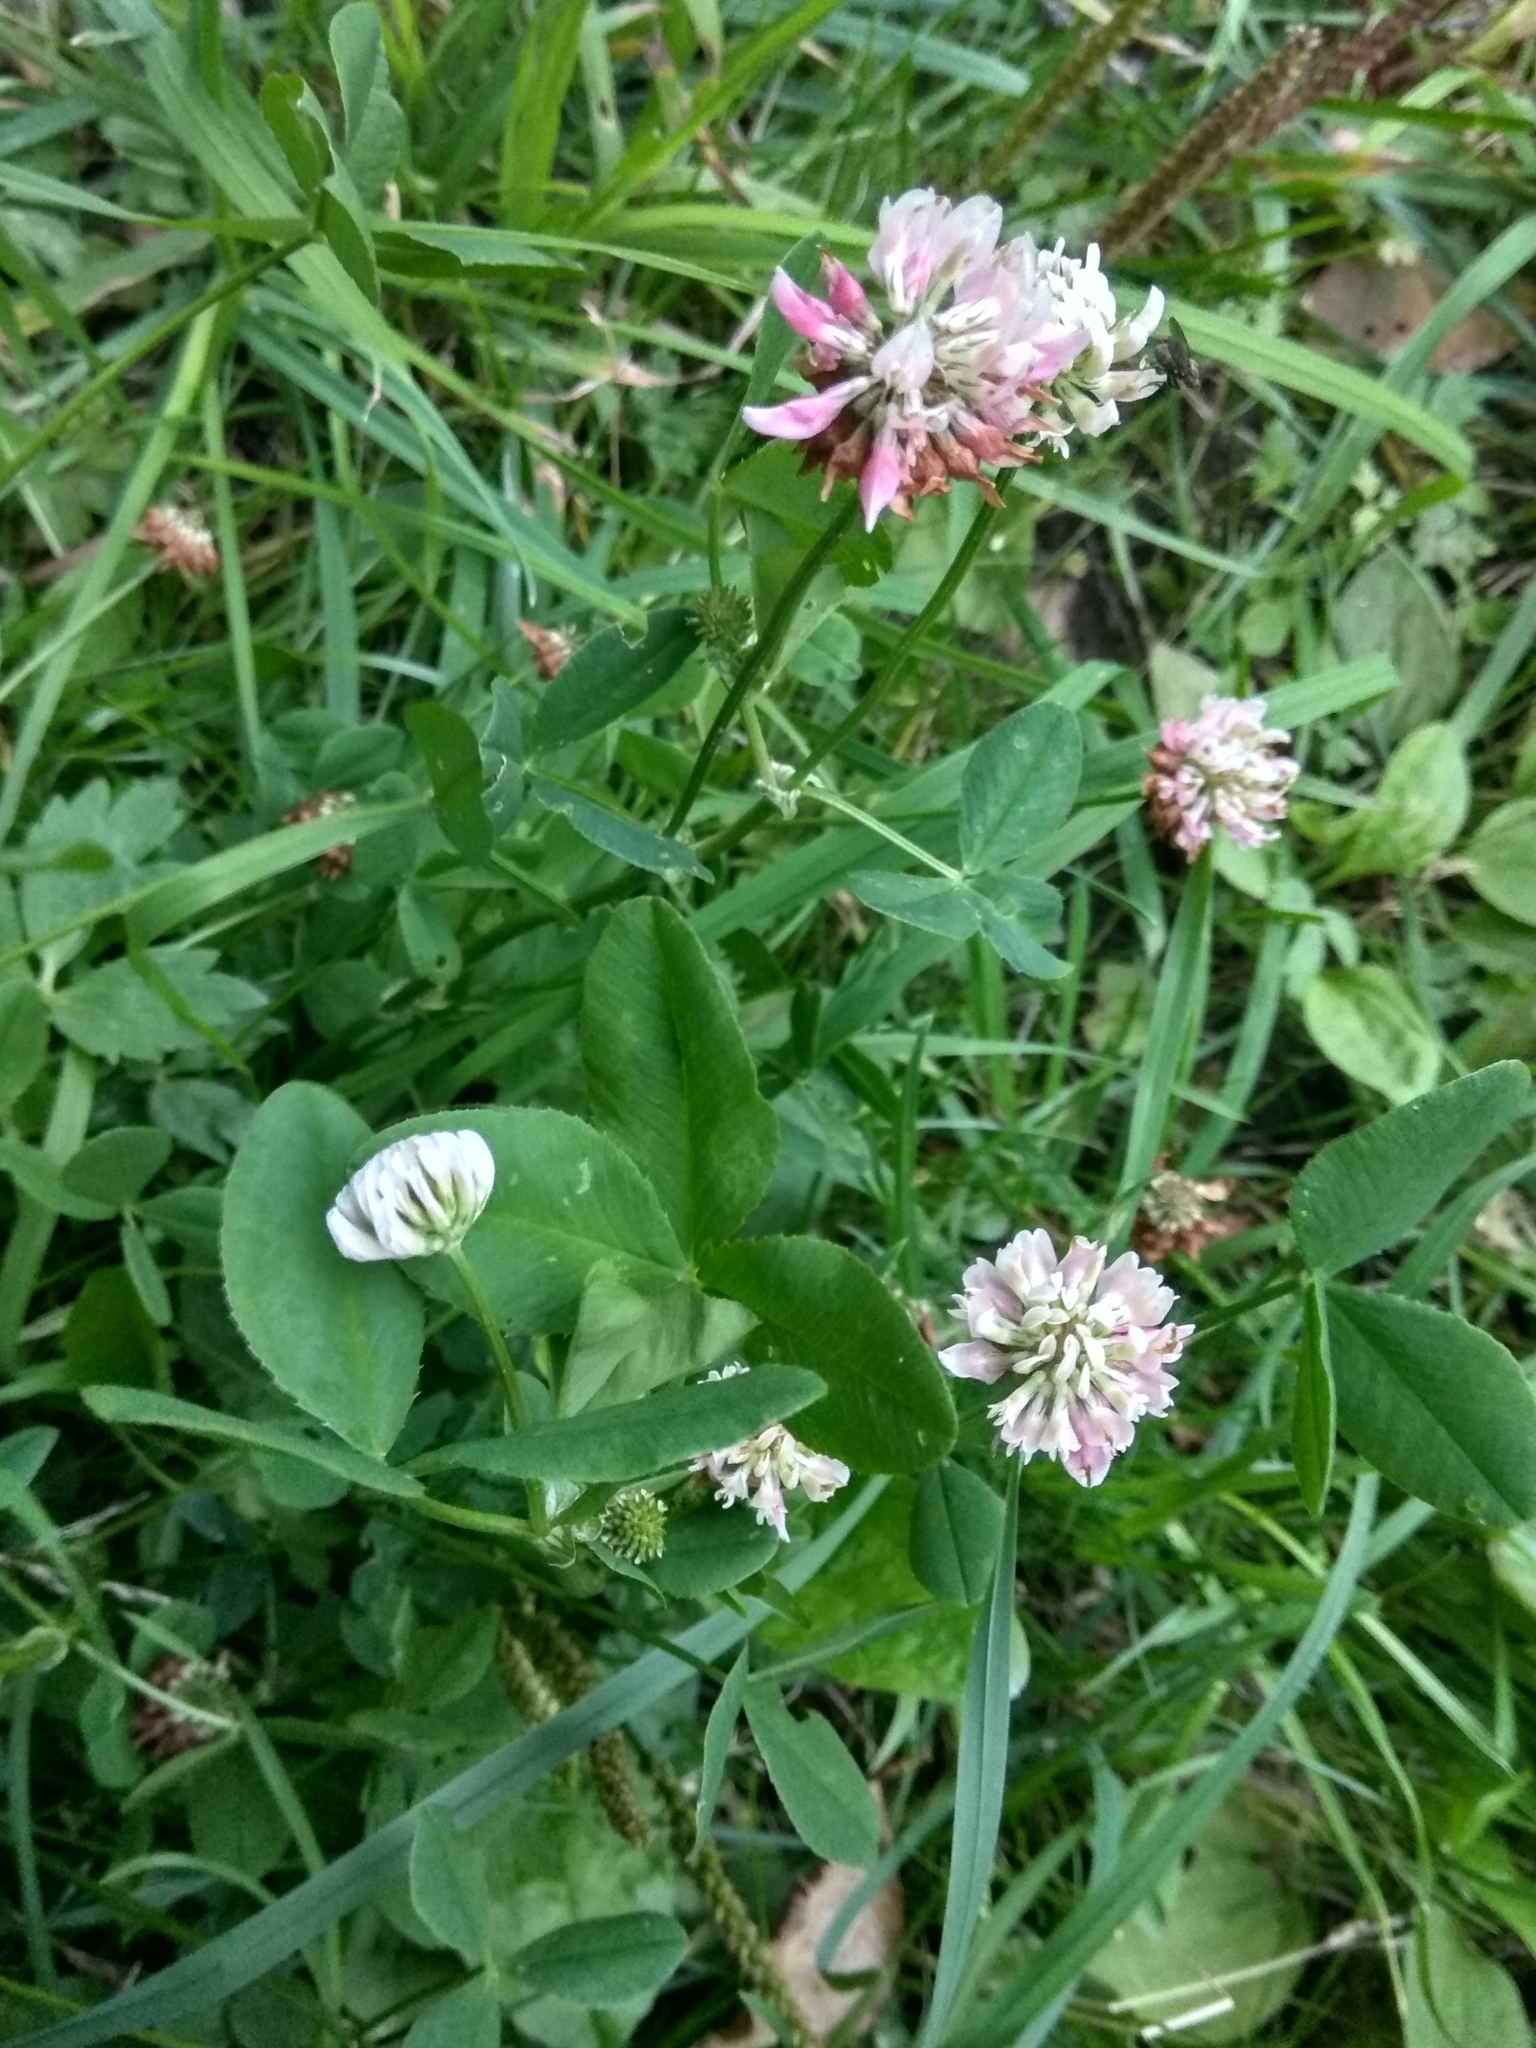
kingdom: Plantae
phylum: Tracheophyta
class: Magnoliopsida
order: Fabales
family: Fabaceae
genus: Trifolium
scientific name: Trifolium hybridum
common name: Alsike clover
